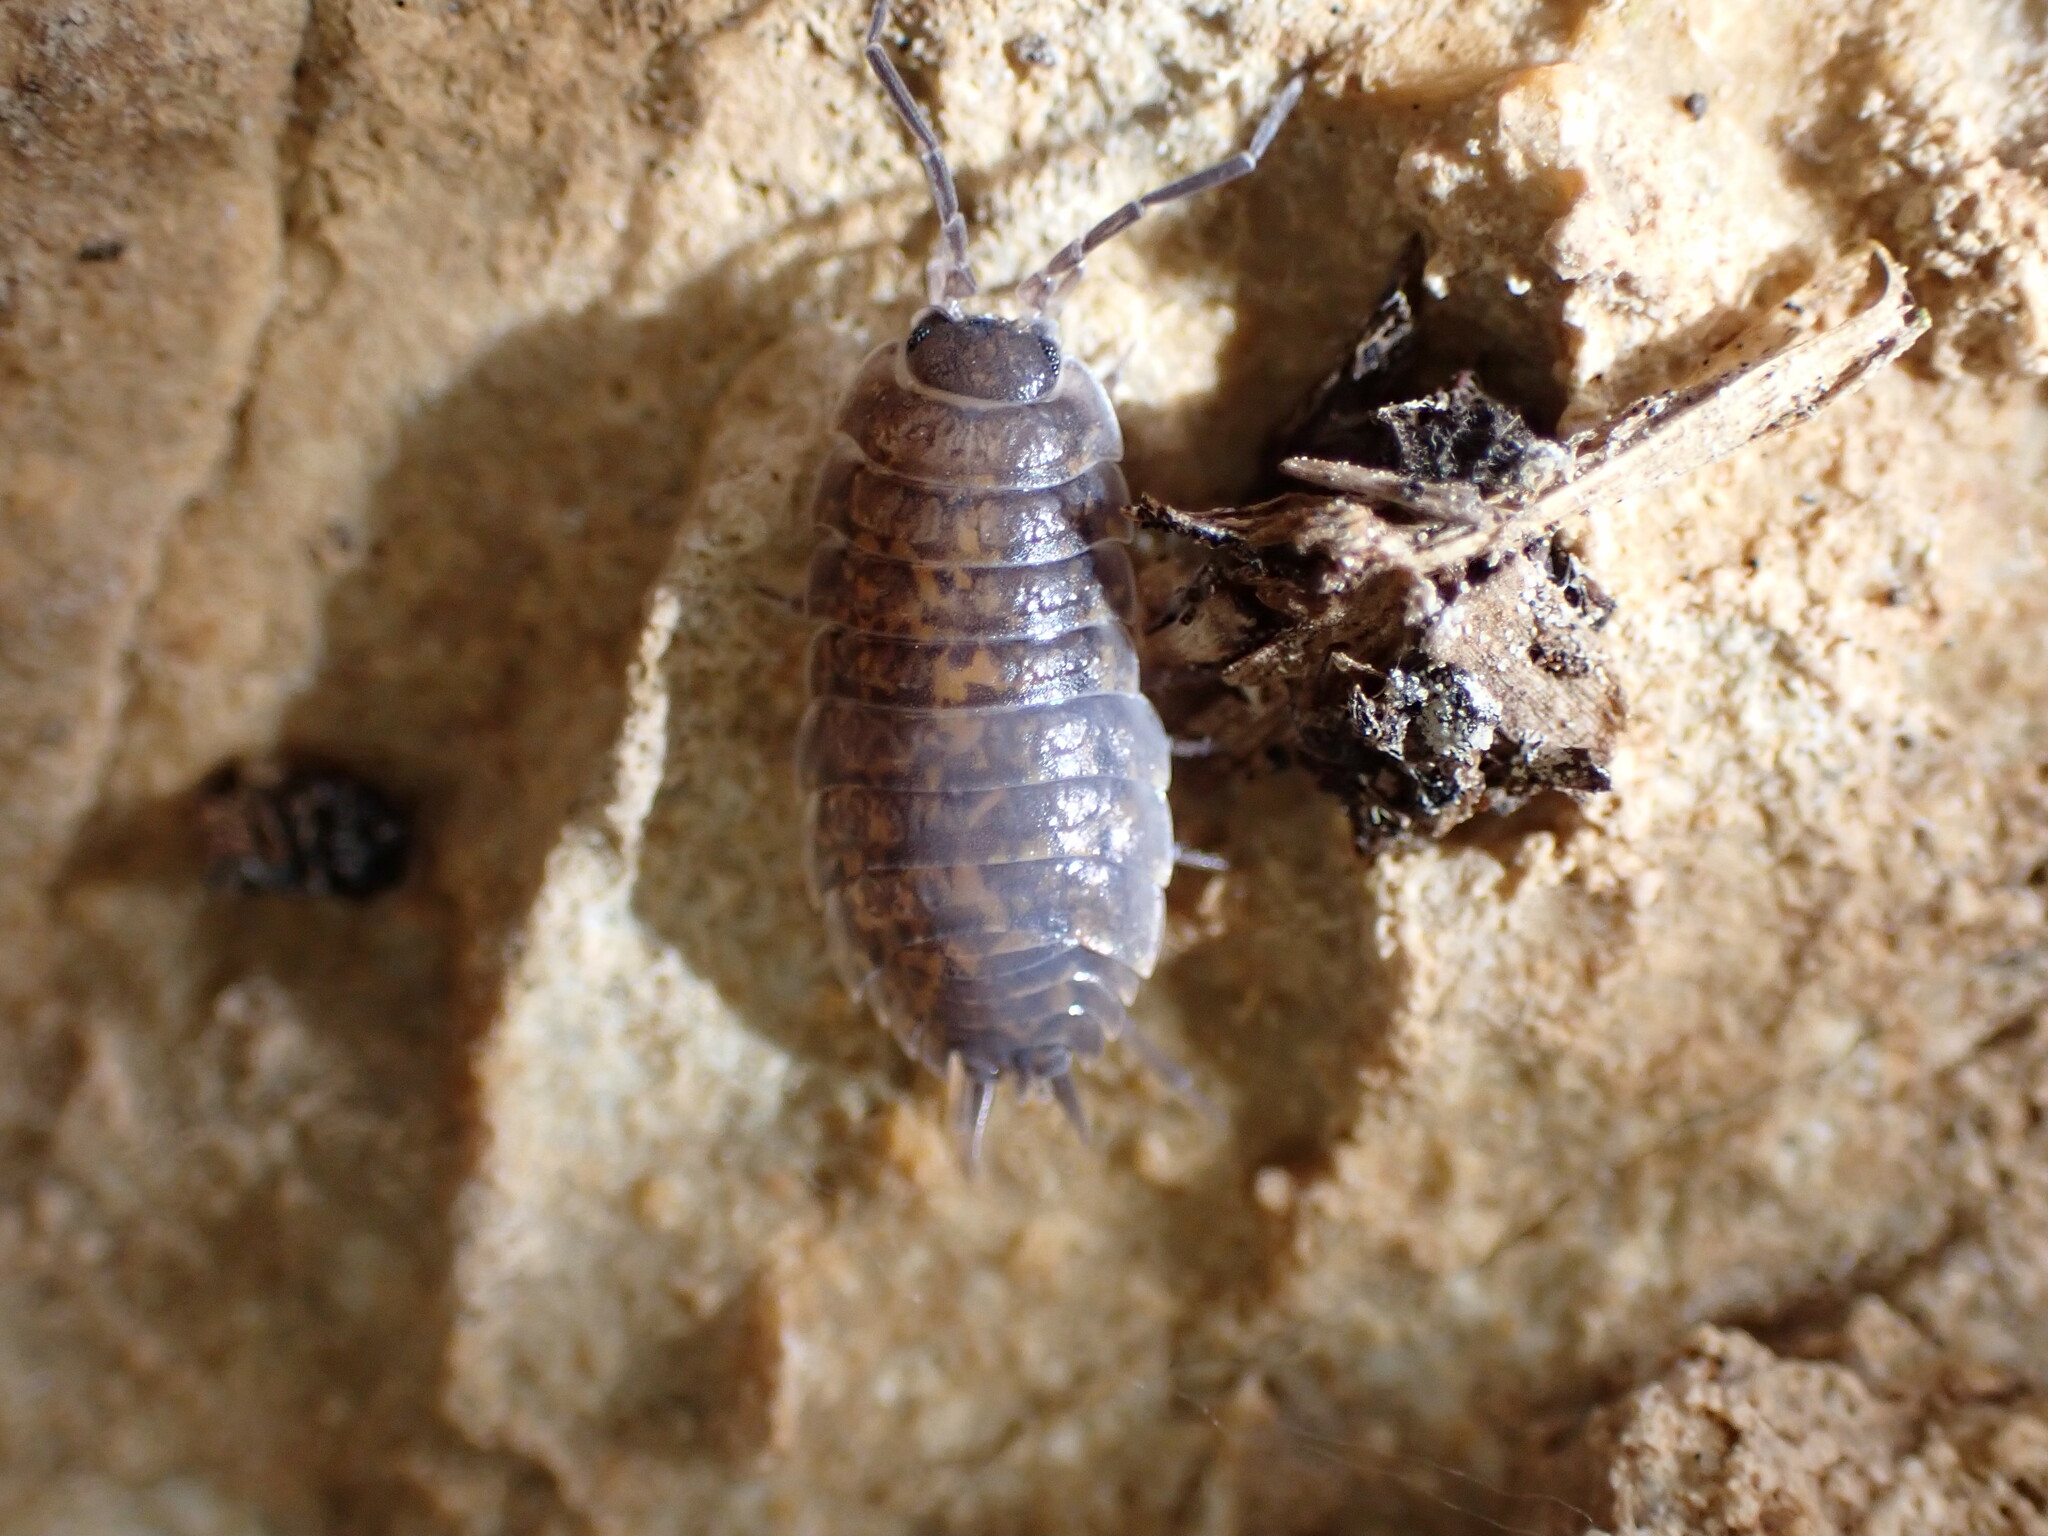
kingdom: Animalia
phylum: Arthropoda
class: Malacostraca
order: Isopoda
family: Porcellionidae
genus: Porcellio
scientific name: Porcellio orarum
